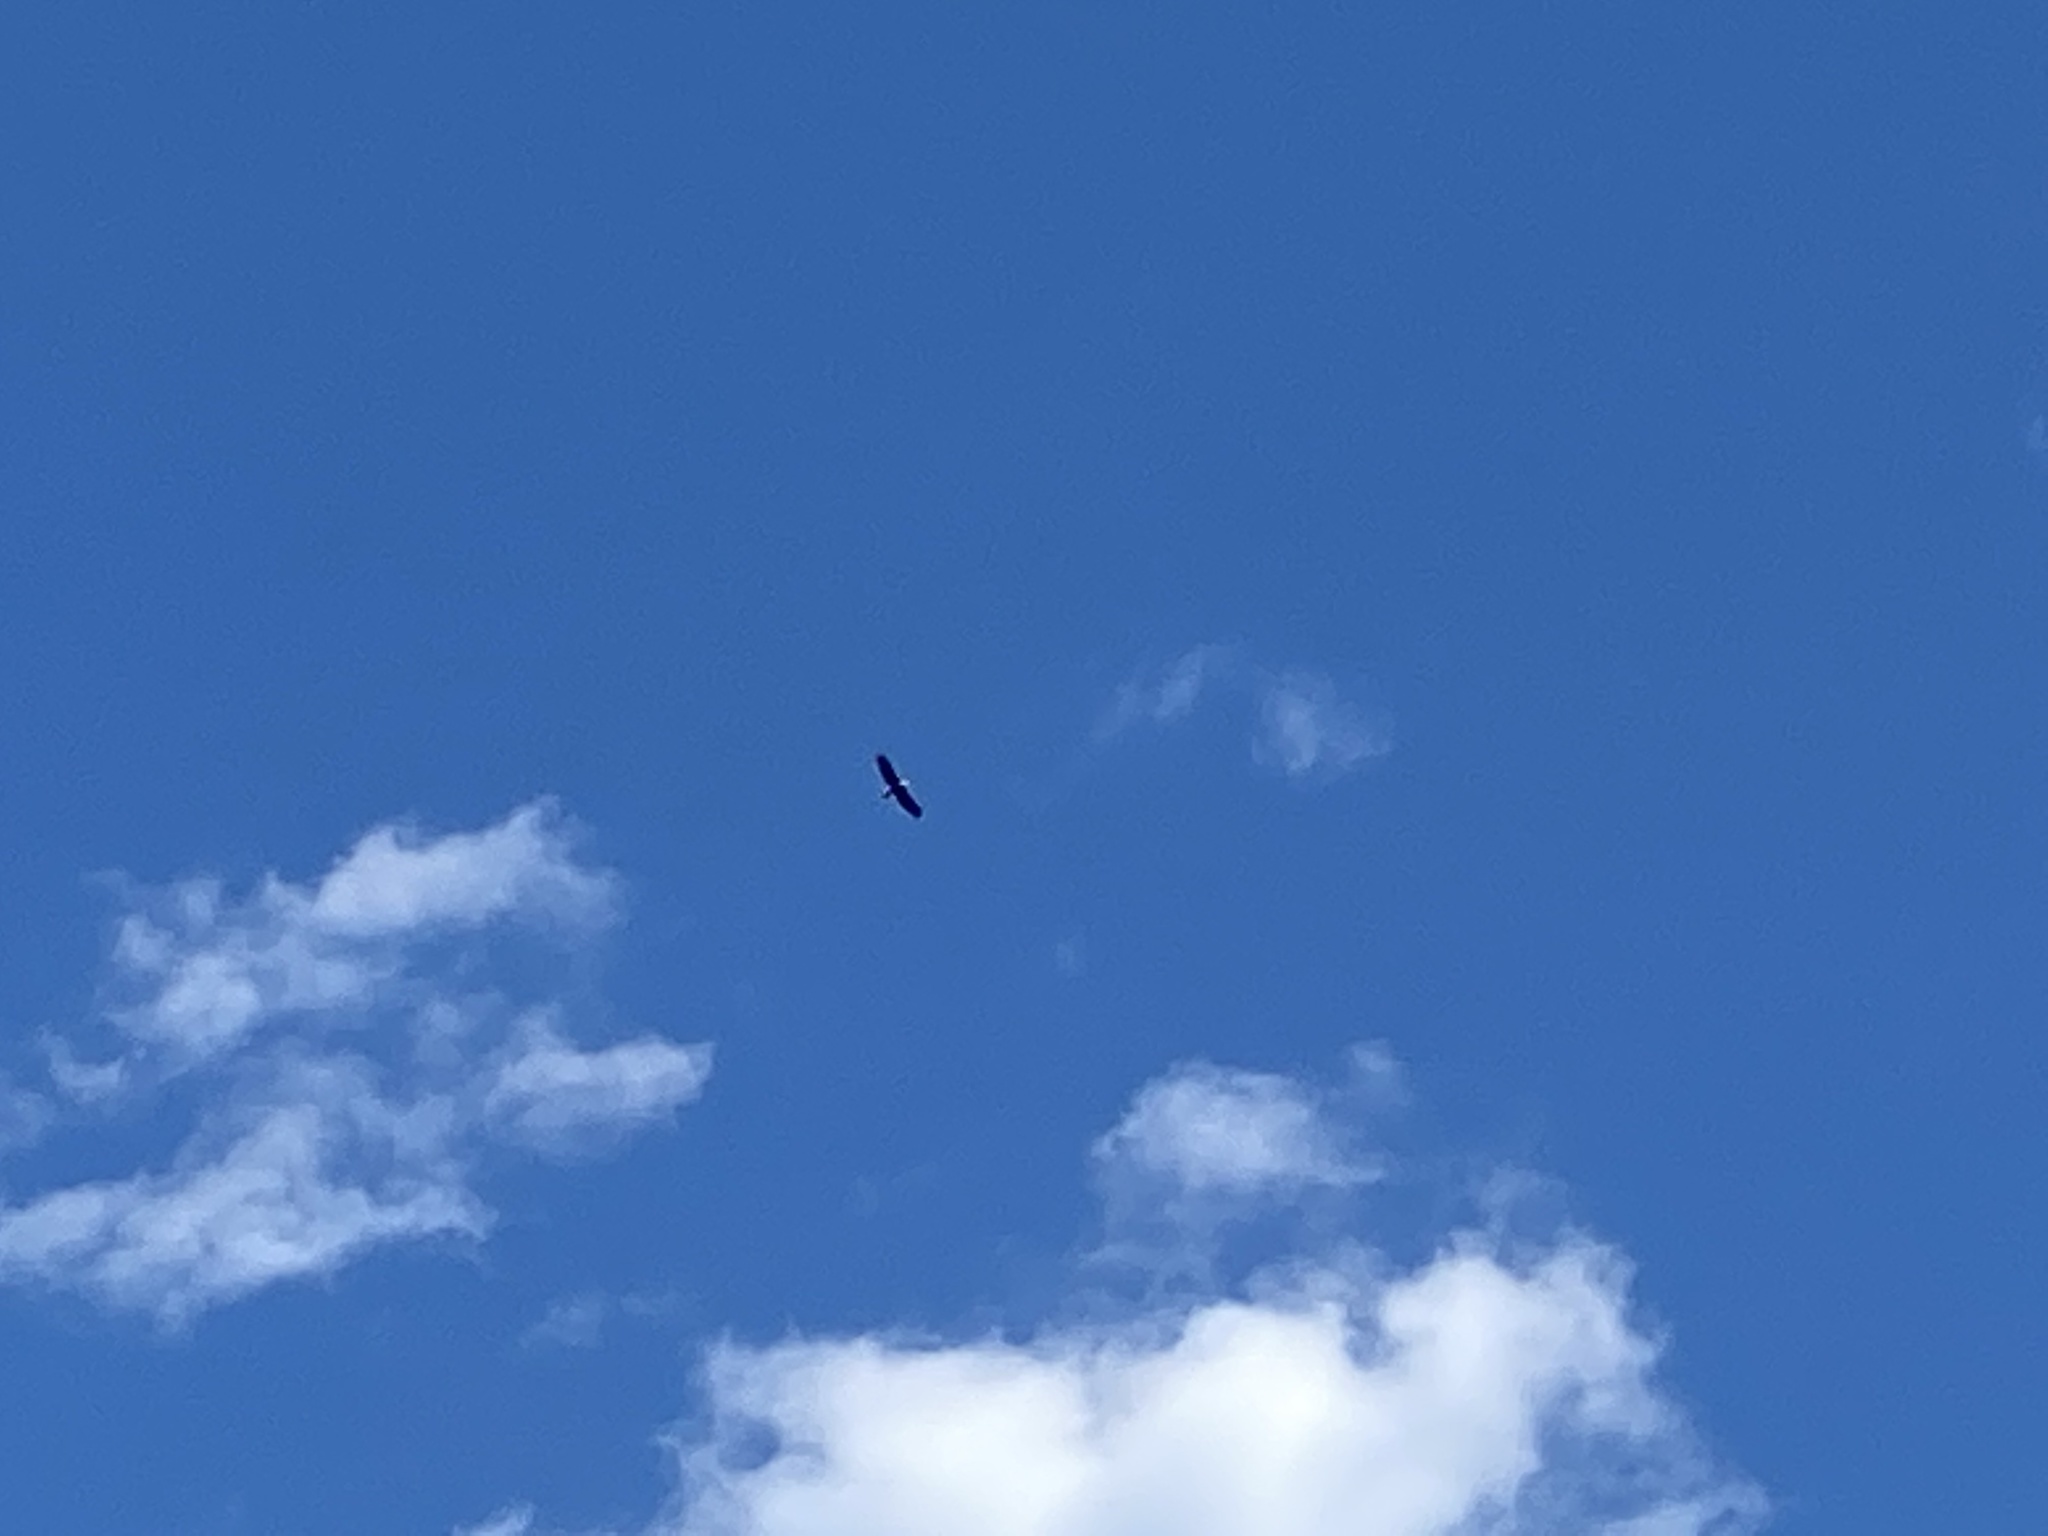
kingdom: Animalia
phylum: Chordata
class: Aves
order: Accipitriformes
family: Accipitridae
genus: Haliaeetus
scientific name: Haliaeetus leucocephalus
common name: Bald eagle
